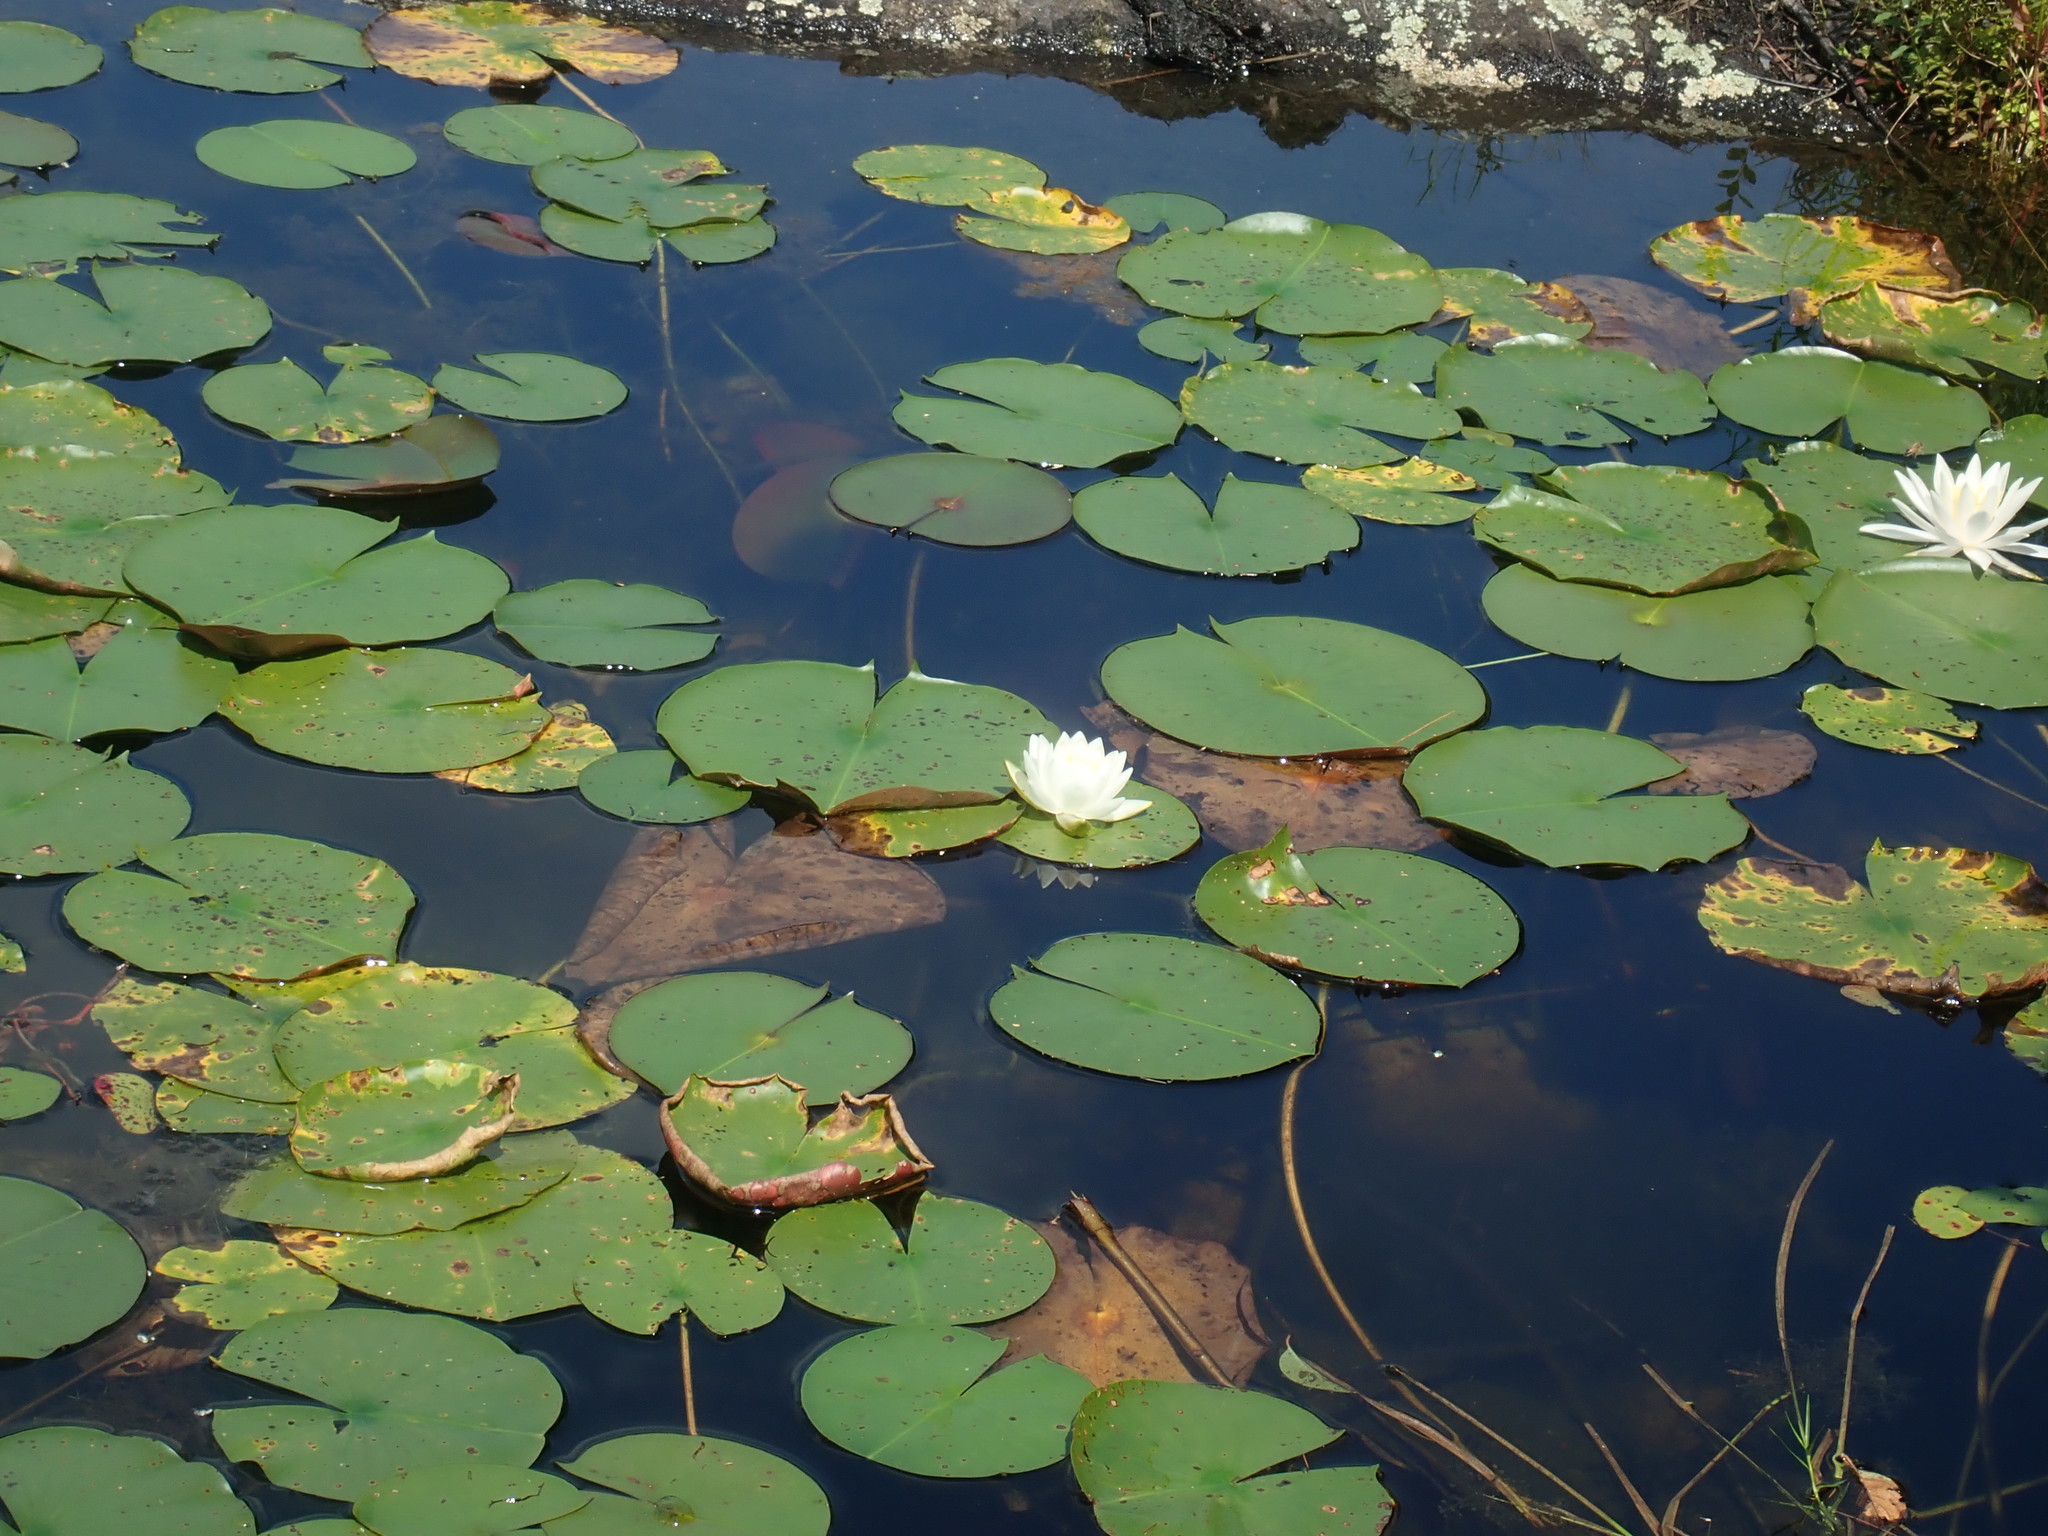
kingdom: Plantae
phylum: Tracheophyta
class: Magnoliopsida
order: Nymphaeales
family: Nymphaeaceae
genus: Nymphaea
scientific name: Nymphaea odorata
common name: Fragrant water-lily
